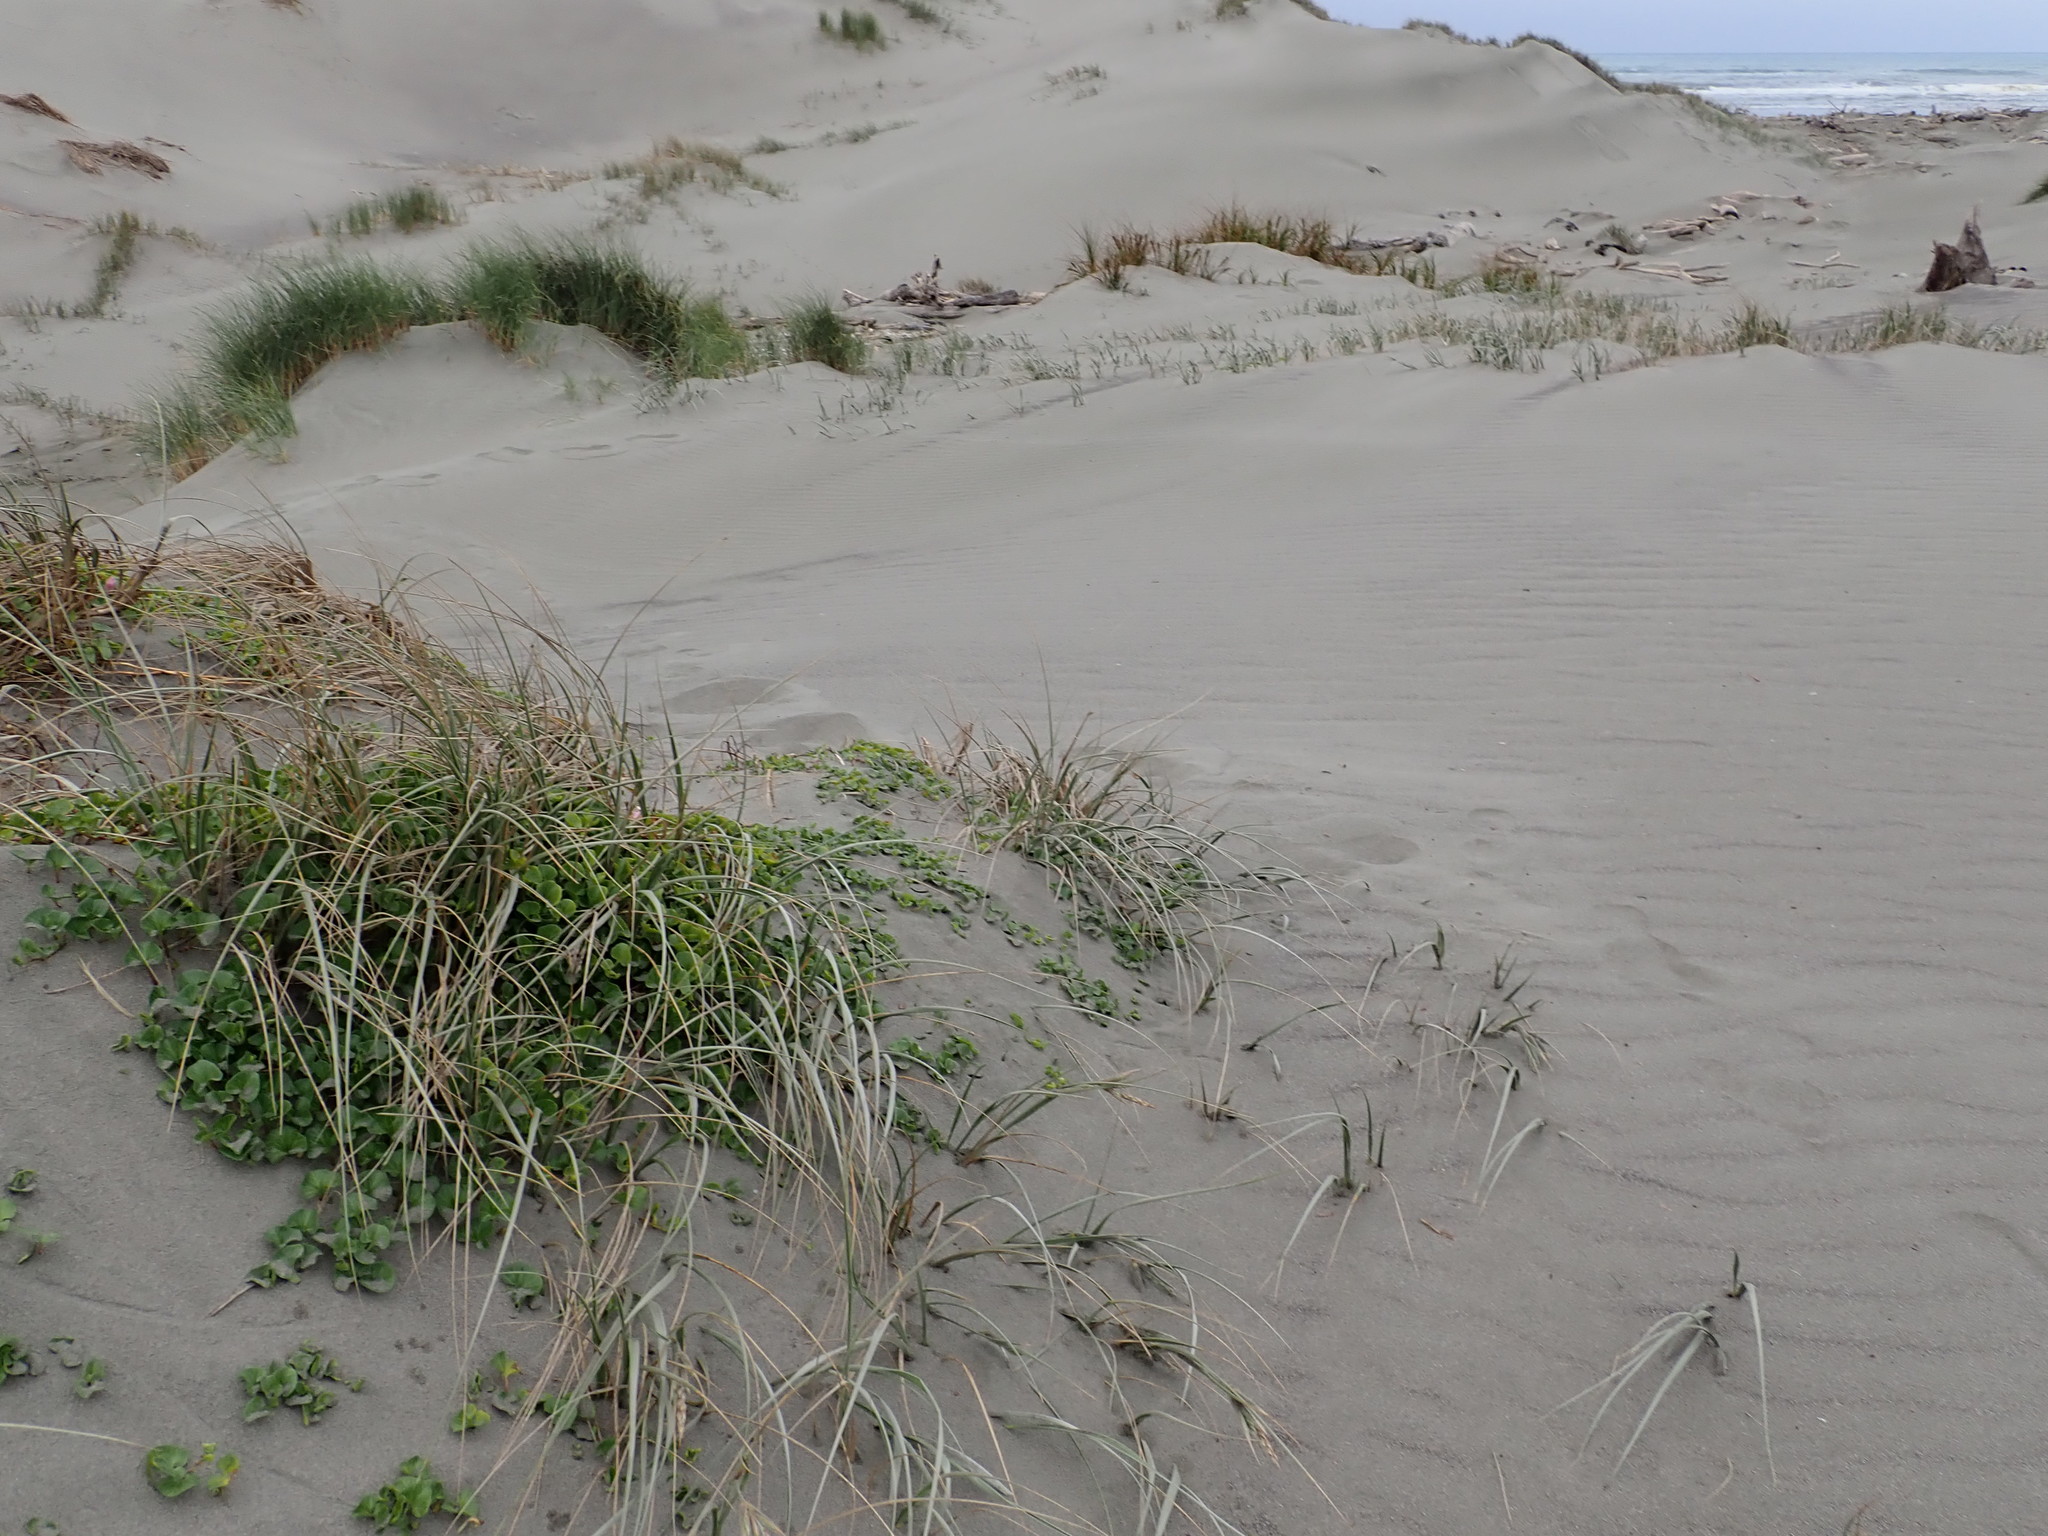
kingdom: Plantae
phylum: Tracheophyta
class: Magnoliopsida
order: Solanales
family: Convolvulaceae
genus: Calystegia
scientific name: Calystegia soldanella
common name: Sea bindweed
